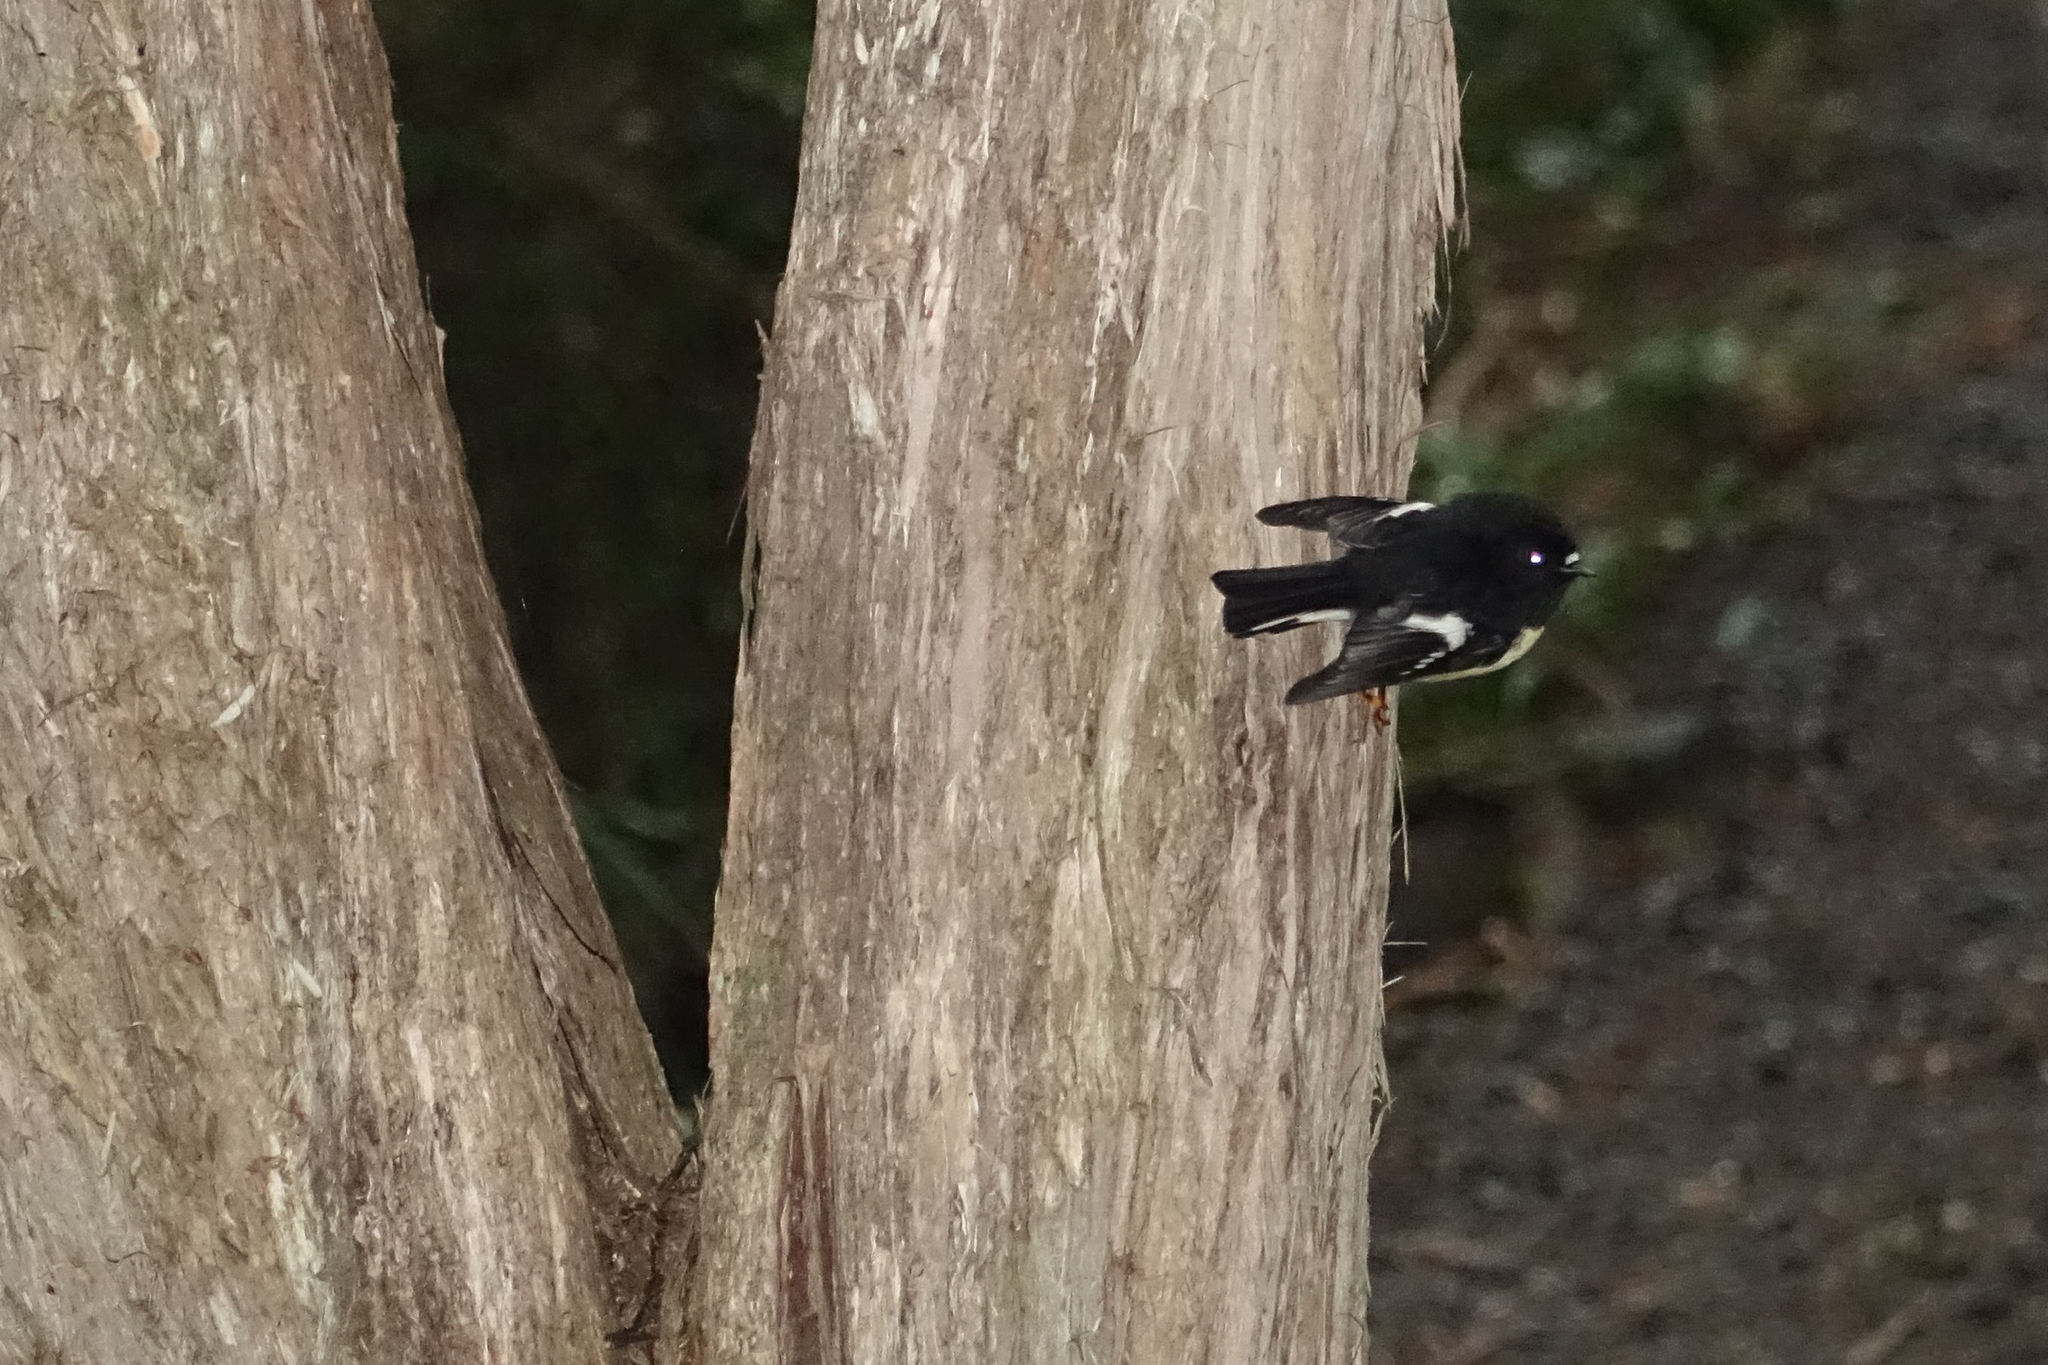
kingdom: Animalia
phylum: Chordata
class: Aves
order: Passeriformes
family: Petroicidae
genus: Petroica
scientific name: Petroica macrocephala
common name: Tomtit
